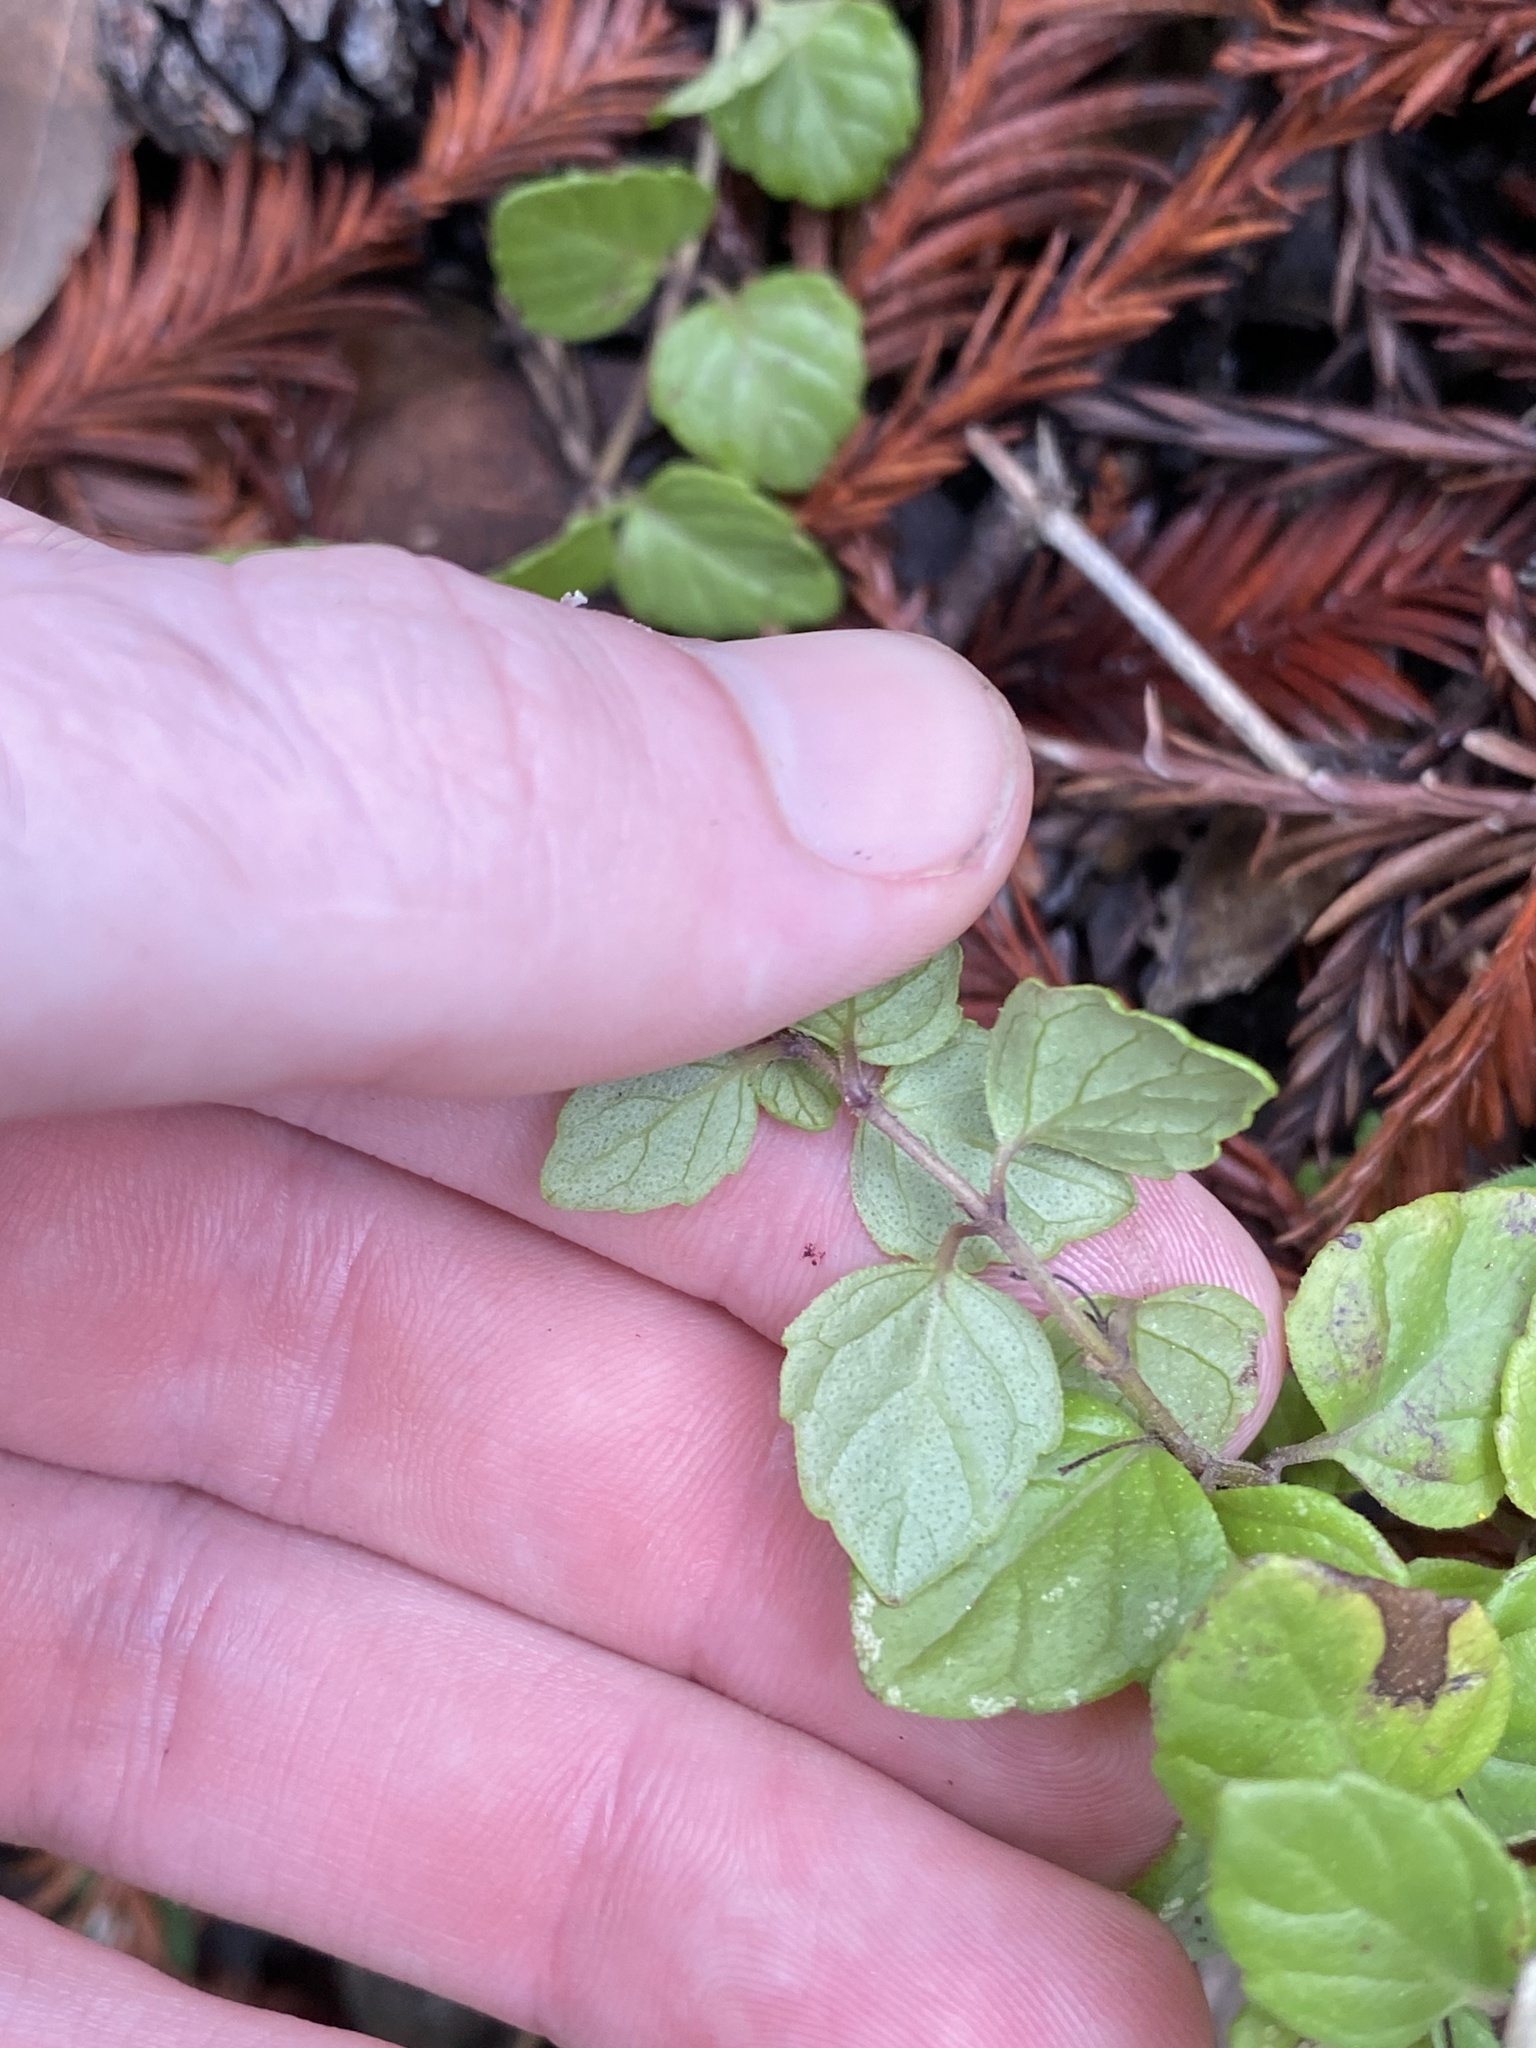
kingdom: Plantae
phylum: Tracheophyta
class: Magnoliopsida
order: Lamiales
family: Lamiaceae
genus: Micromeria
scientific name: Micromeria douglasii
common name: Yerba buena
